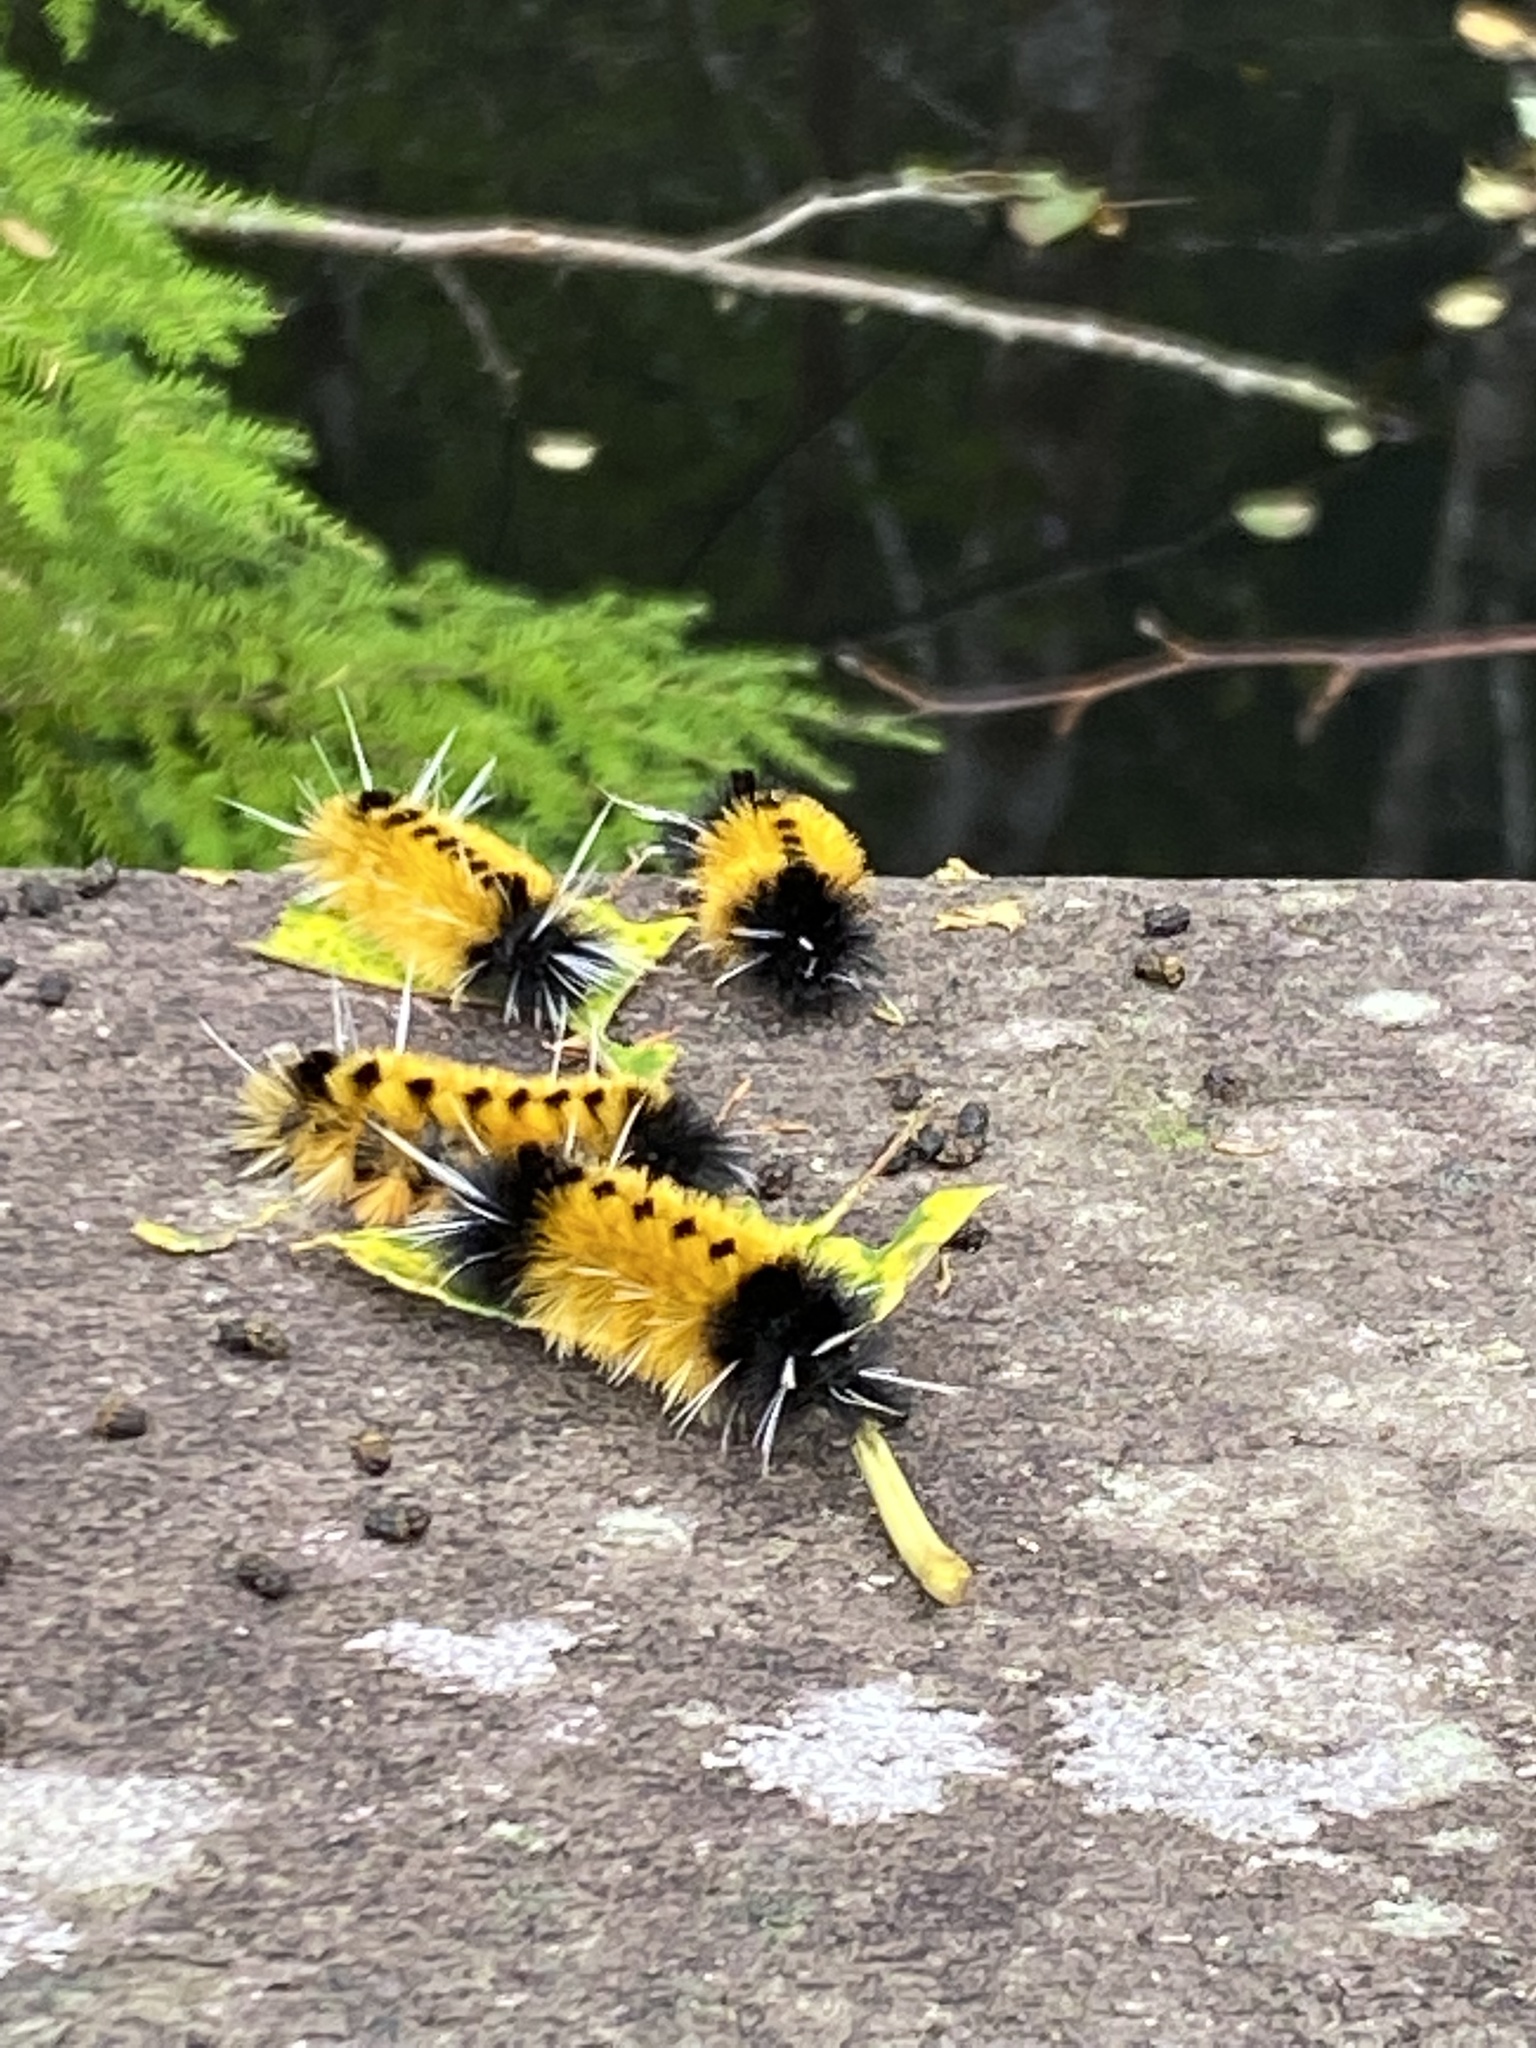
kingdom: Animalia
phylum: Arthropoda
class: Insecta
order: Lepidoptera
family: Erebidae
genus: Lophocampa
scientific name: Lophocampa maculata
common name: Spotted tussock moth
